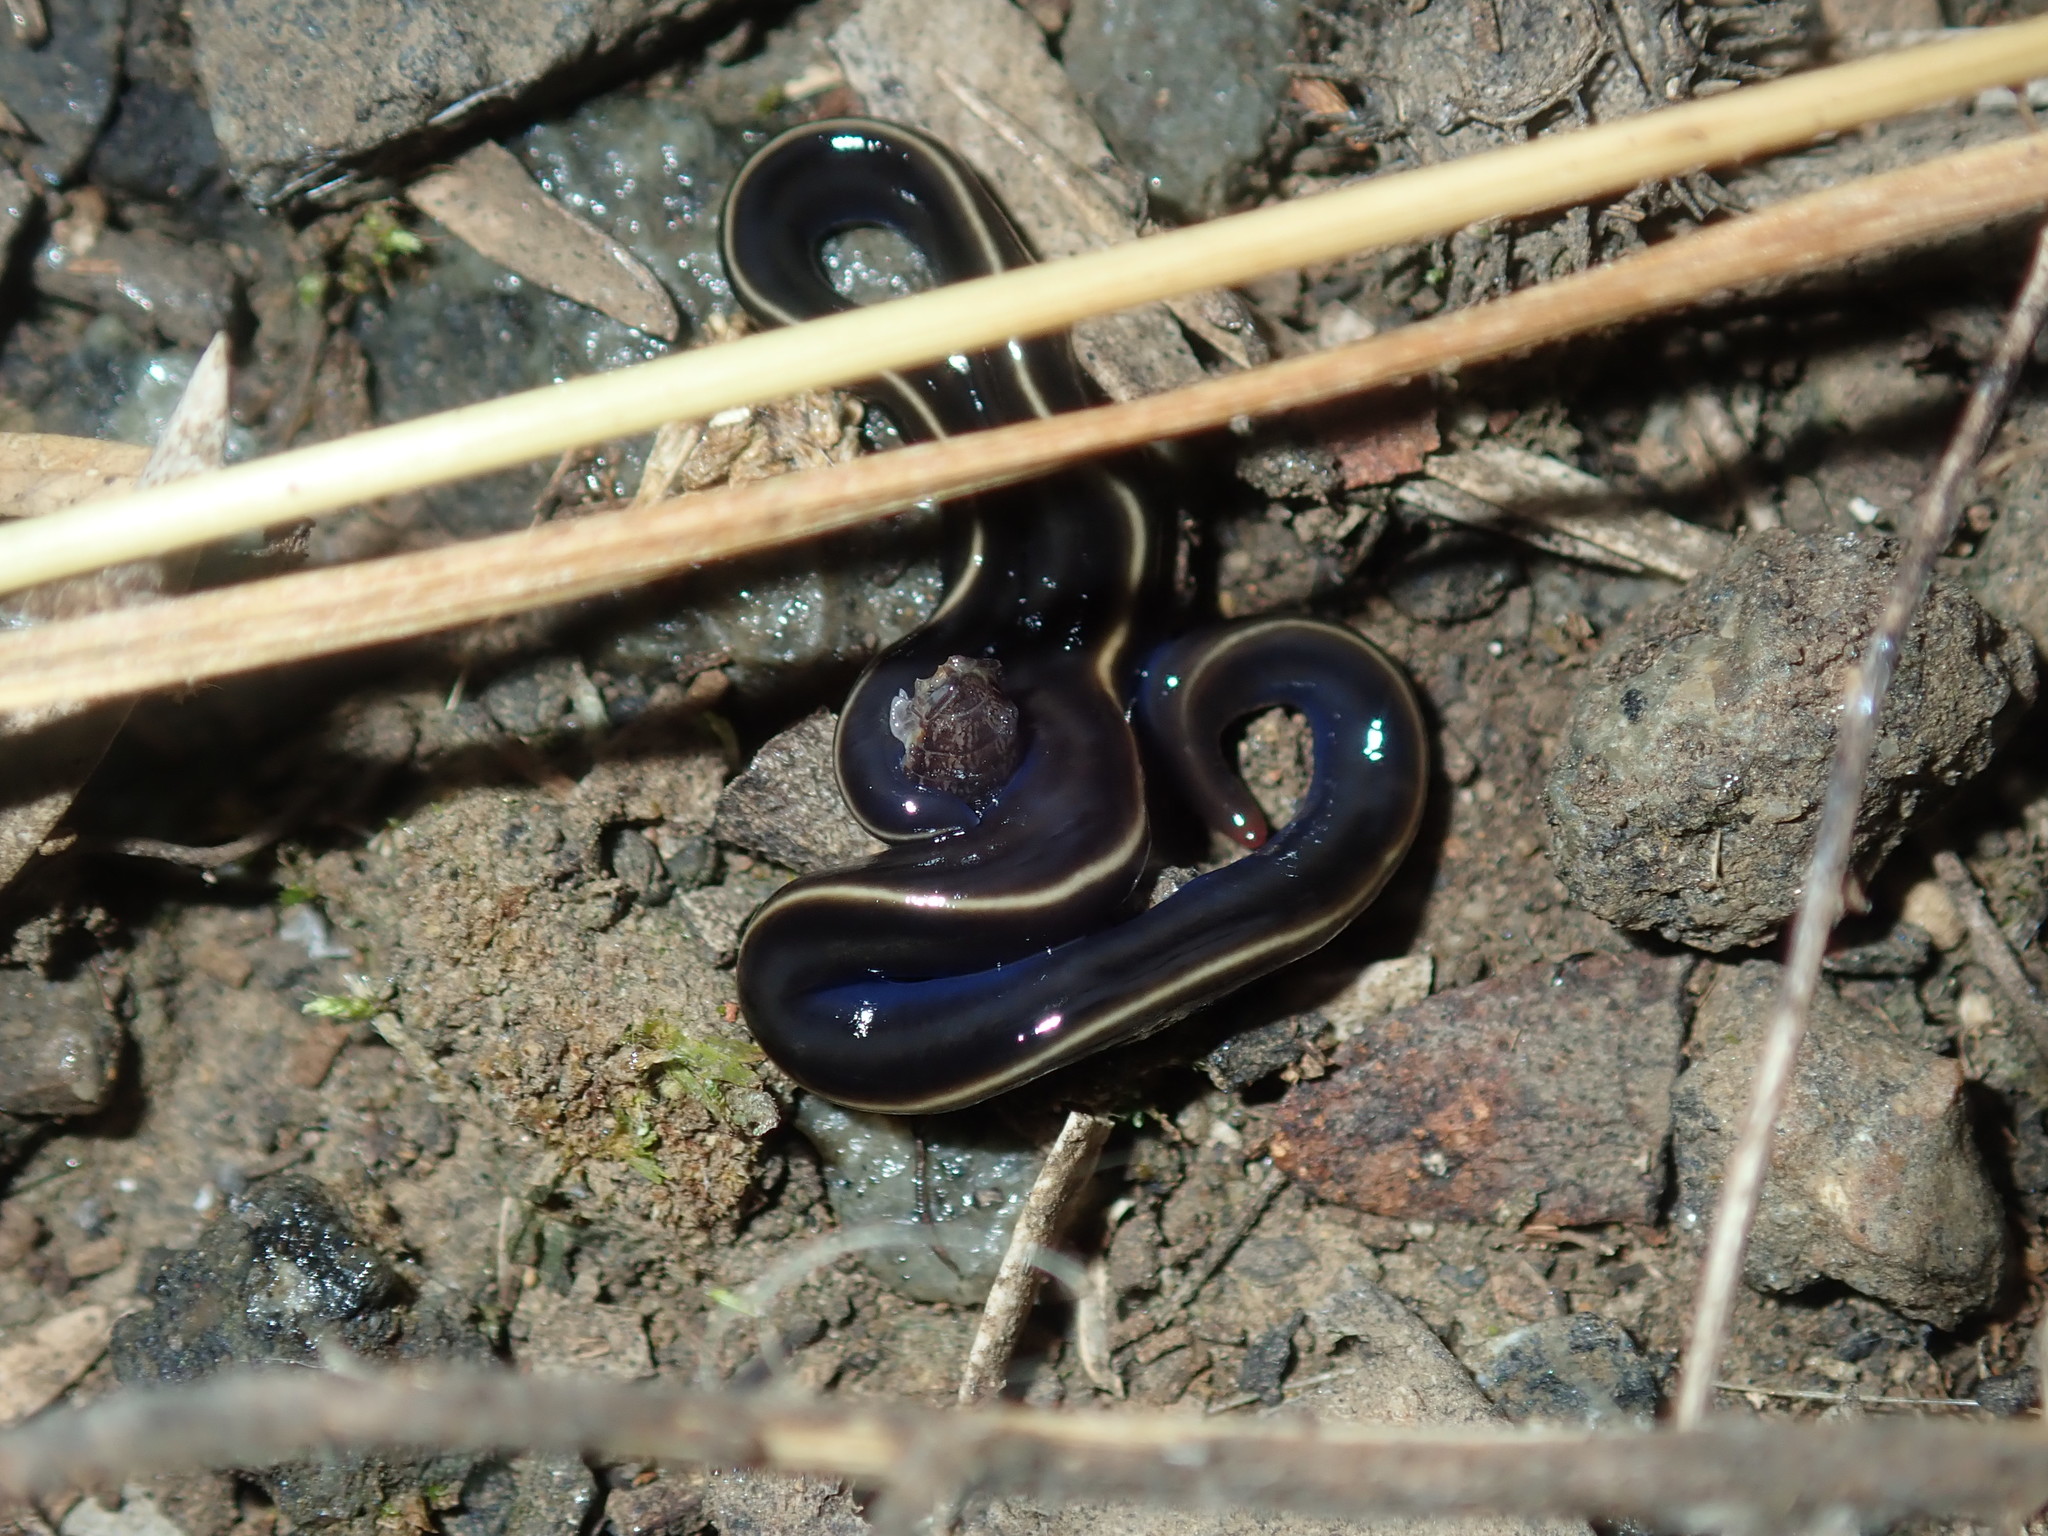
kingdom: Animalia
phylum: Platyhelminthes
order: Tricladida
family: Geoplanidae
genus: Caenoplana
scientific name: Caenoplana coerulea
